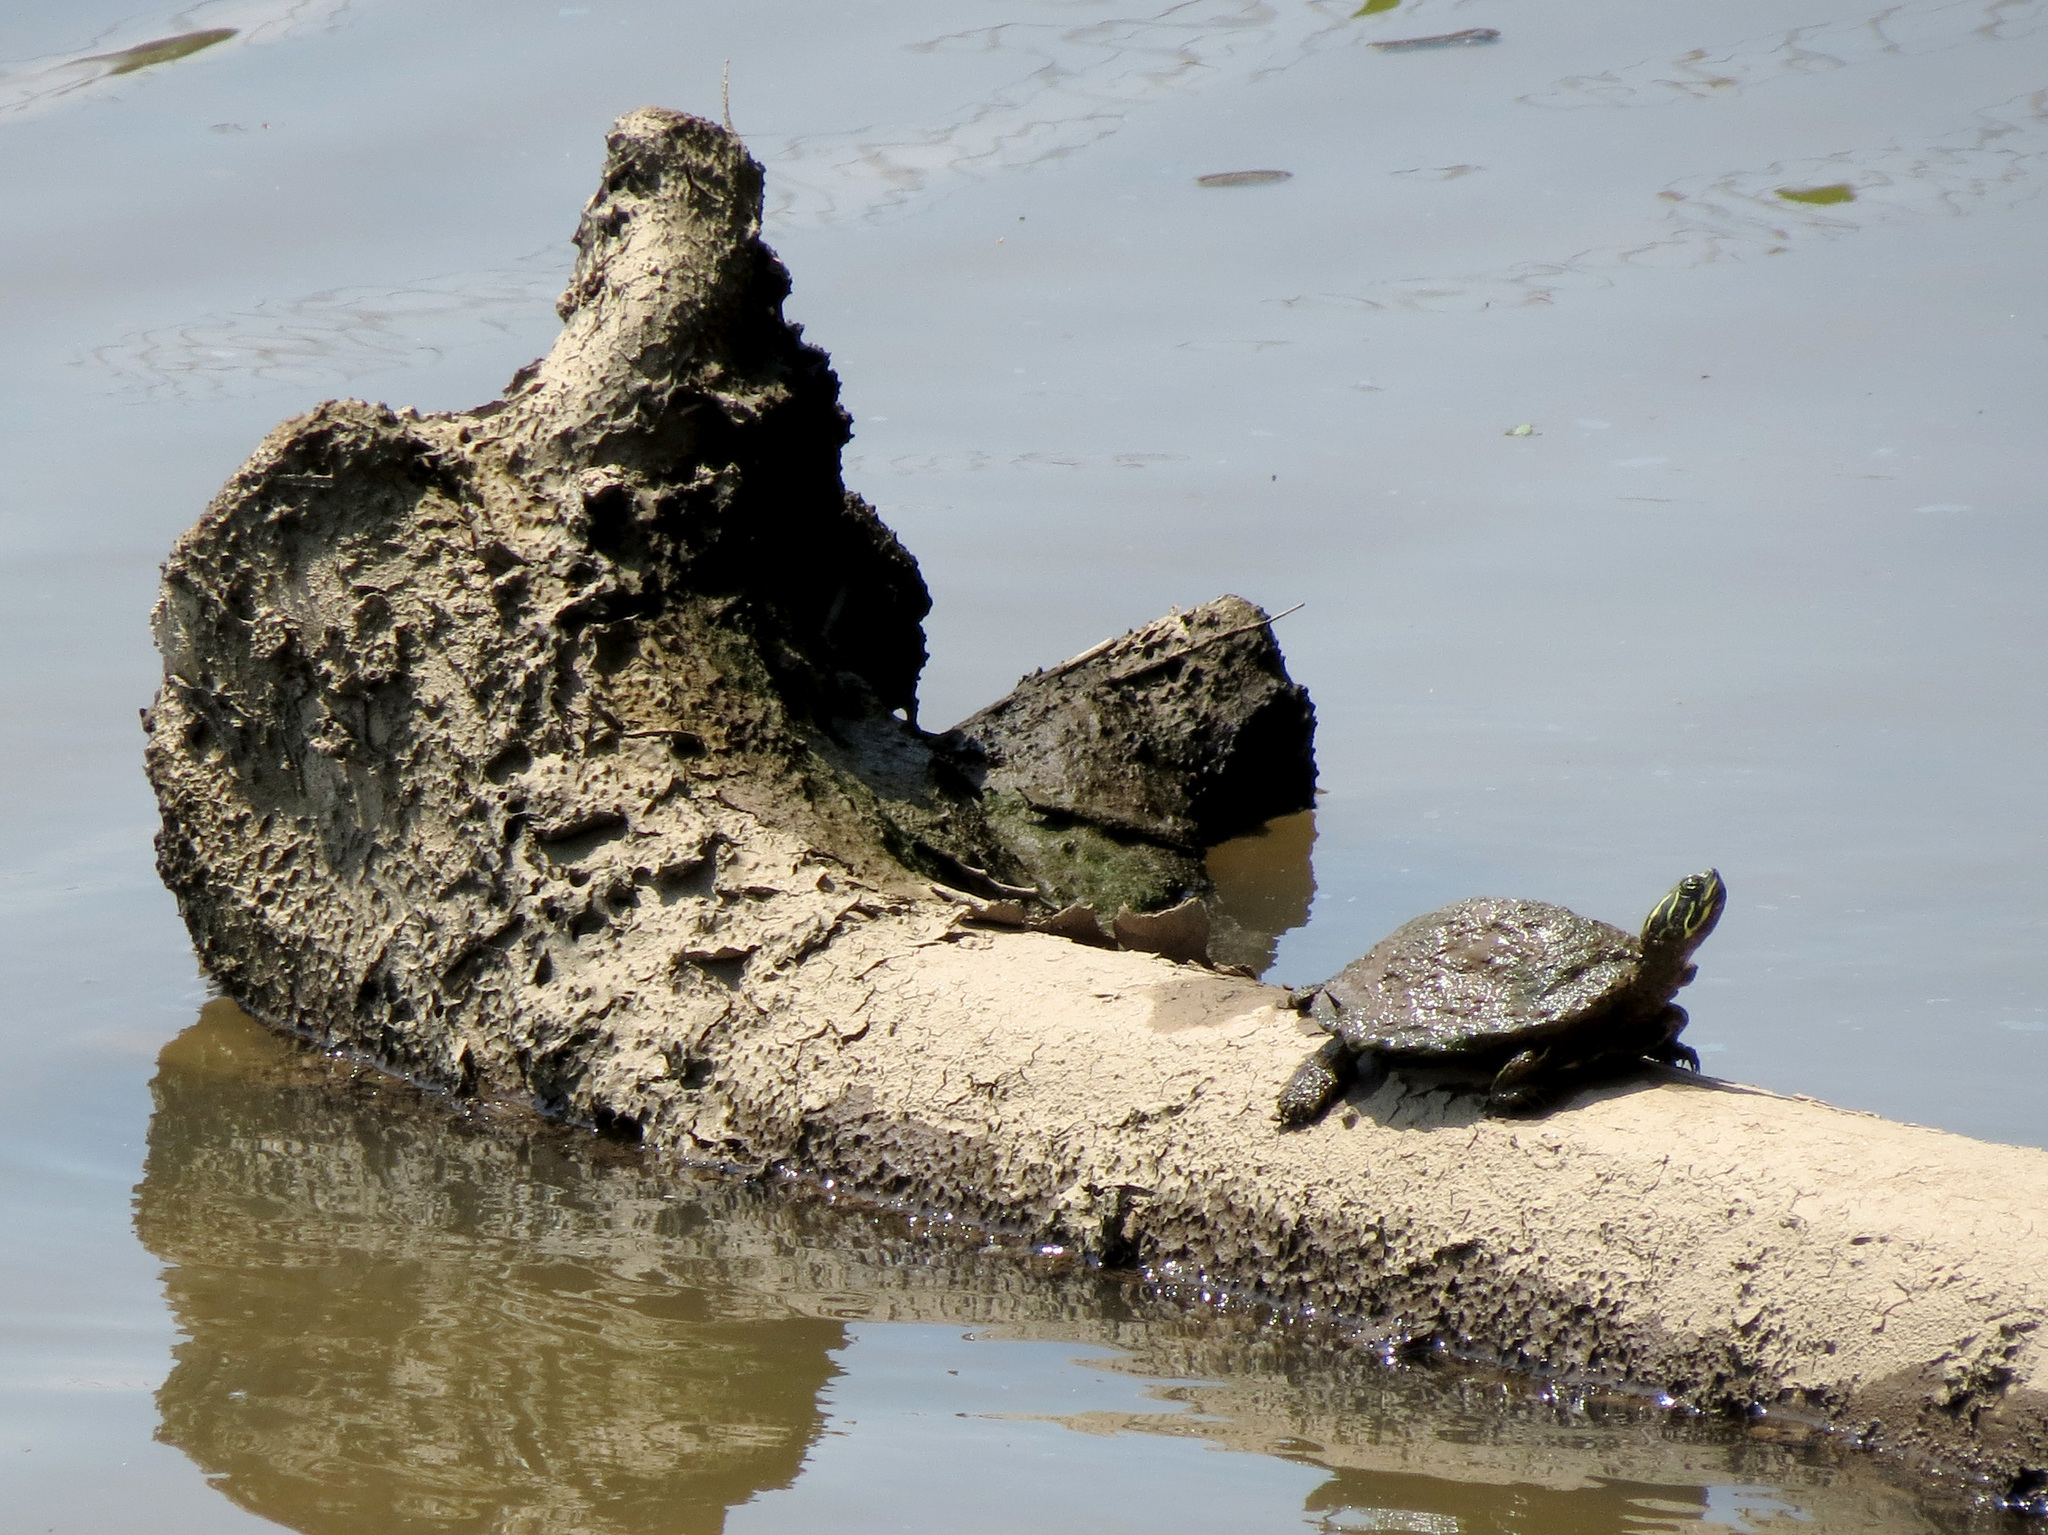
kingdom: Animalia
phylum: Chordata
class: Testudines
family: Emydidae
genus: Pseudemys
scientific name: Pseudemys concinna
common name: Eastern river cooter
